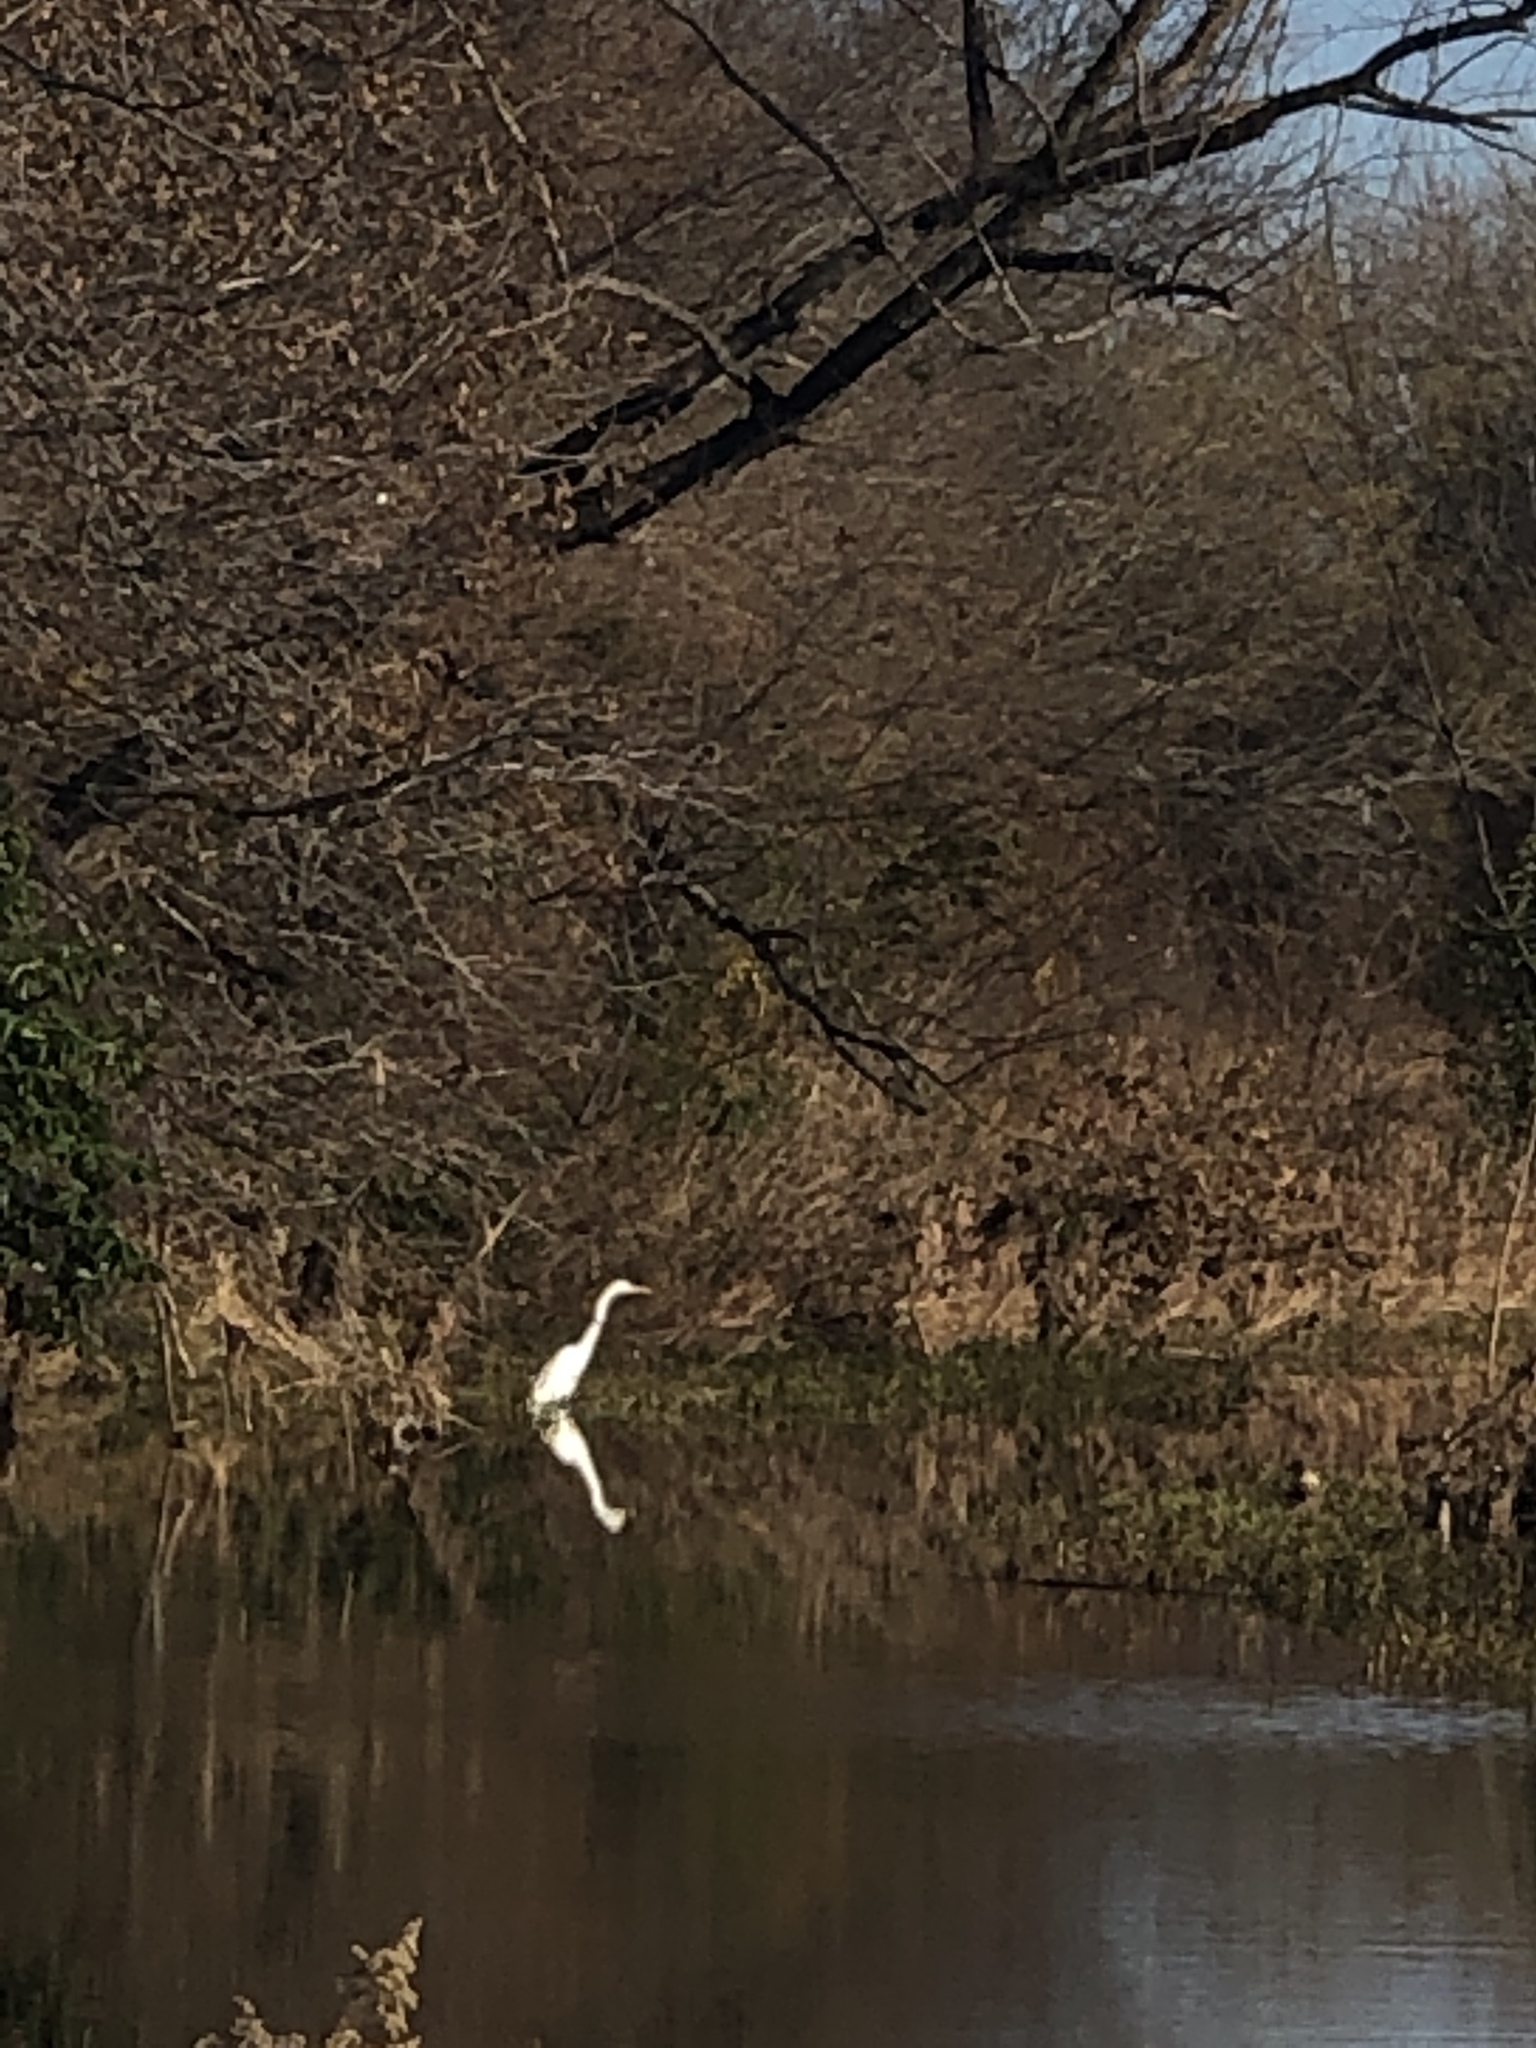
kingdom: Animalia
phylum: Chordata
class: Aves
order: Pelecaniformes
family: Ardeidae
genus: Ardea
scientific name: Ardea alba
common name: Great egret
